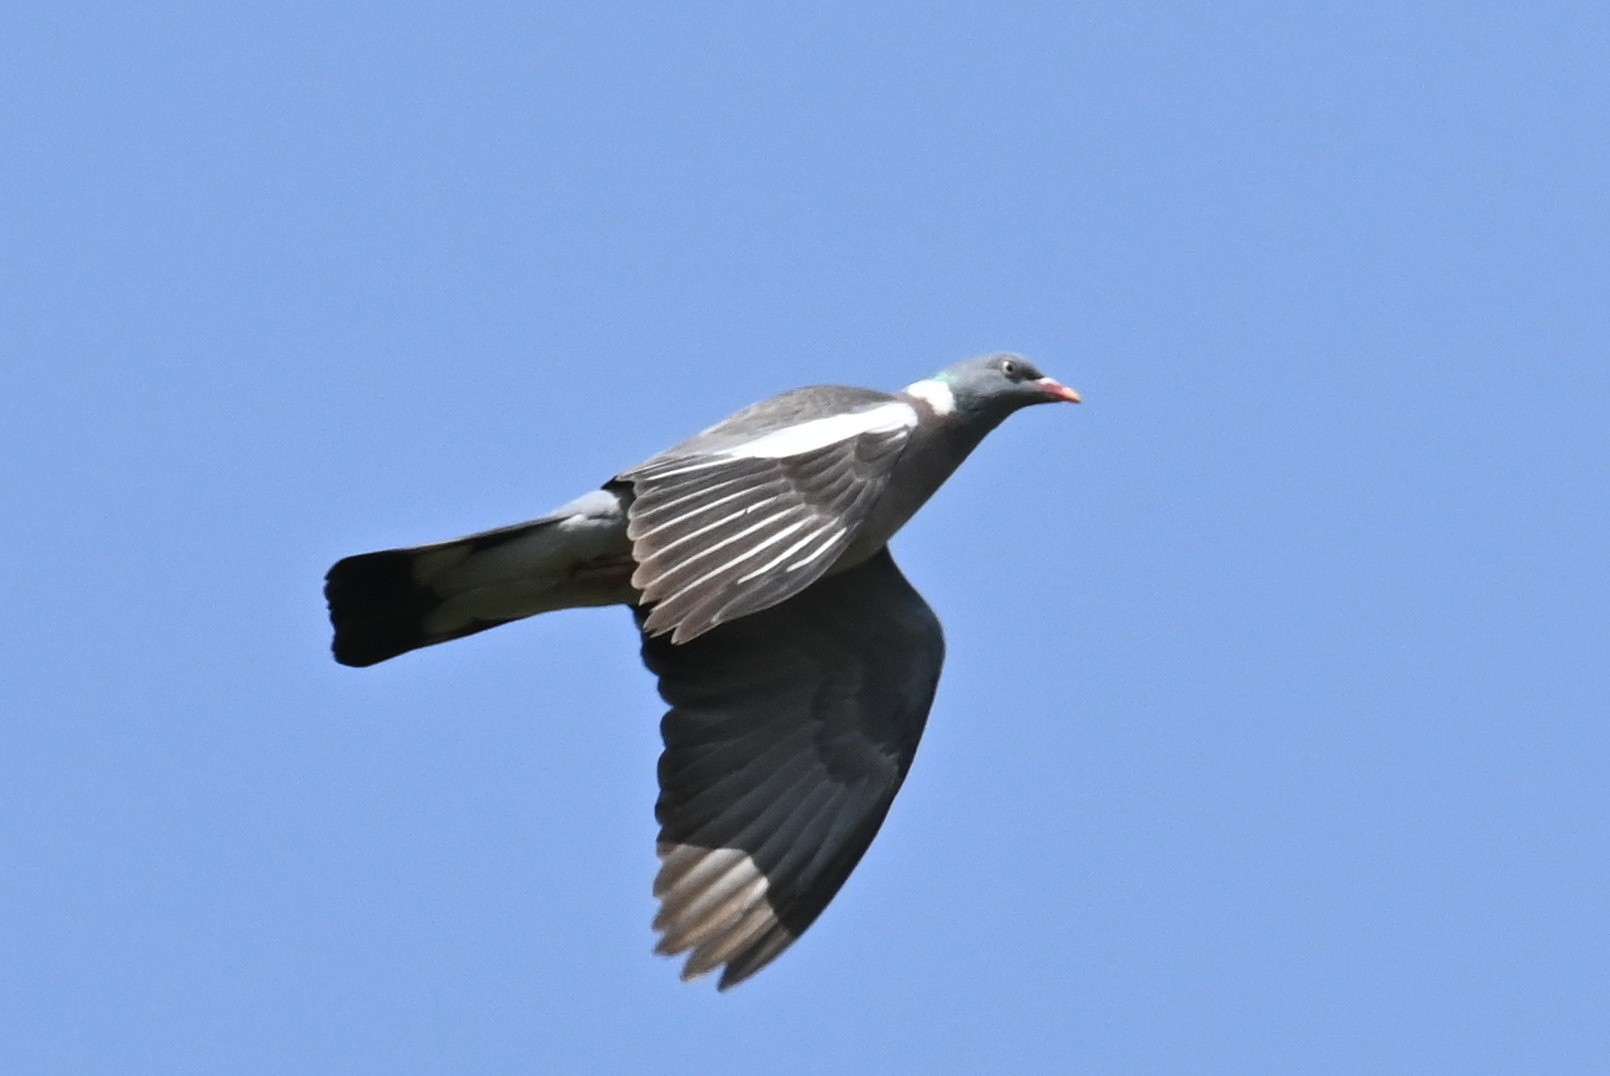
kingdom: Animalia
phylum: Chordata
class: Aves
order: Columbiformes
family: Columbidae
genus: Columba
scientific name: Columba palumbus
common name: Common wood pigeon
